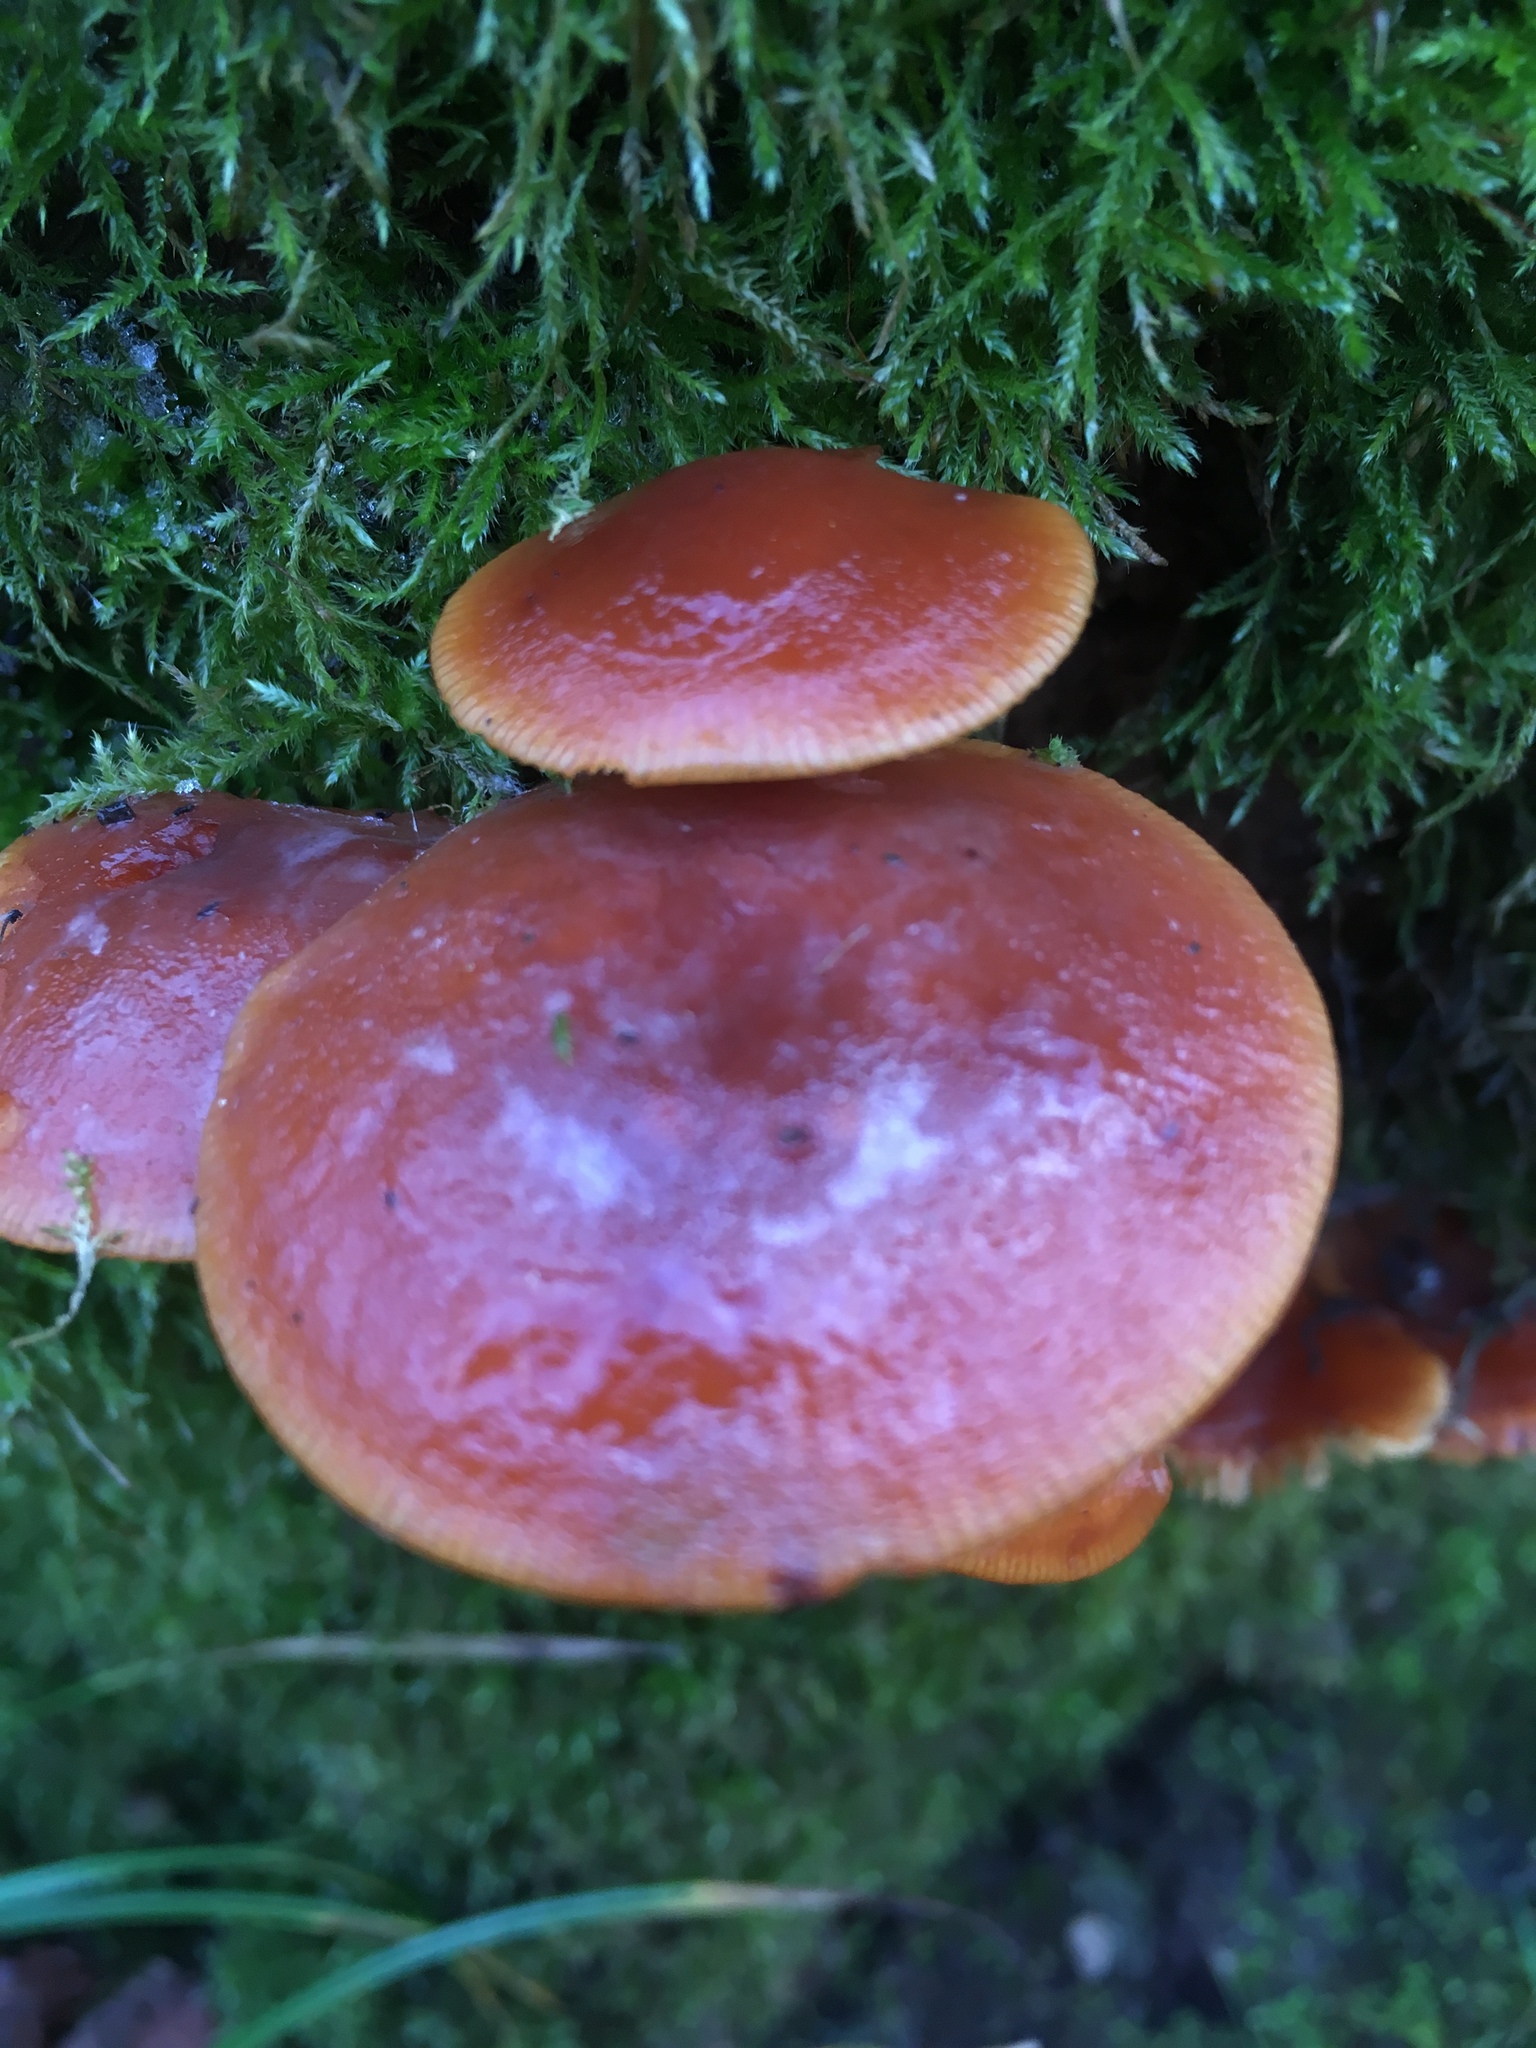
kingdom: Fungi
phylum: Basidiomycota
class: Agaricomycetes
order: Agaricales
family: Physalacriaceae
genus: Flammulina
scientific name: Flammulina
